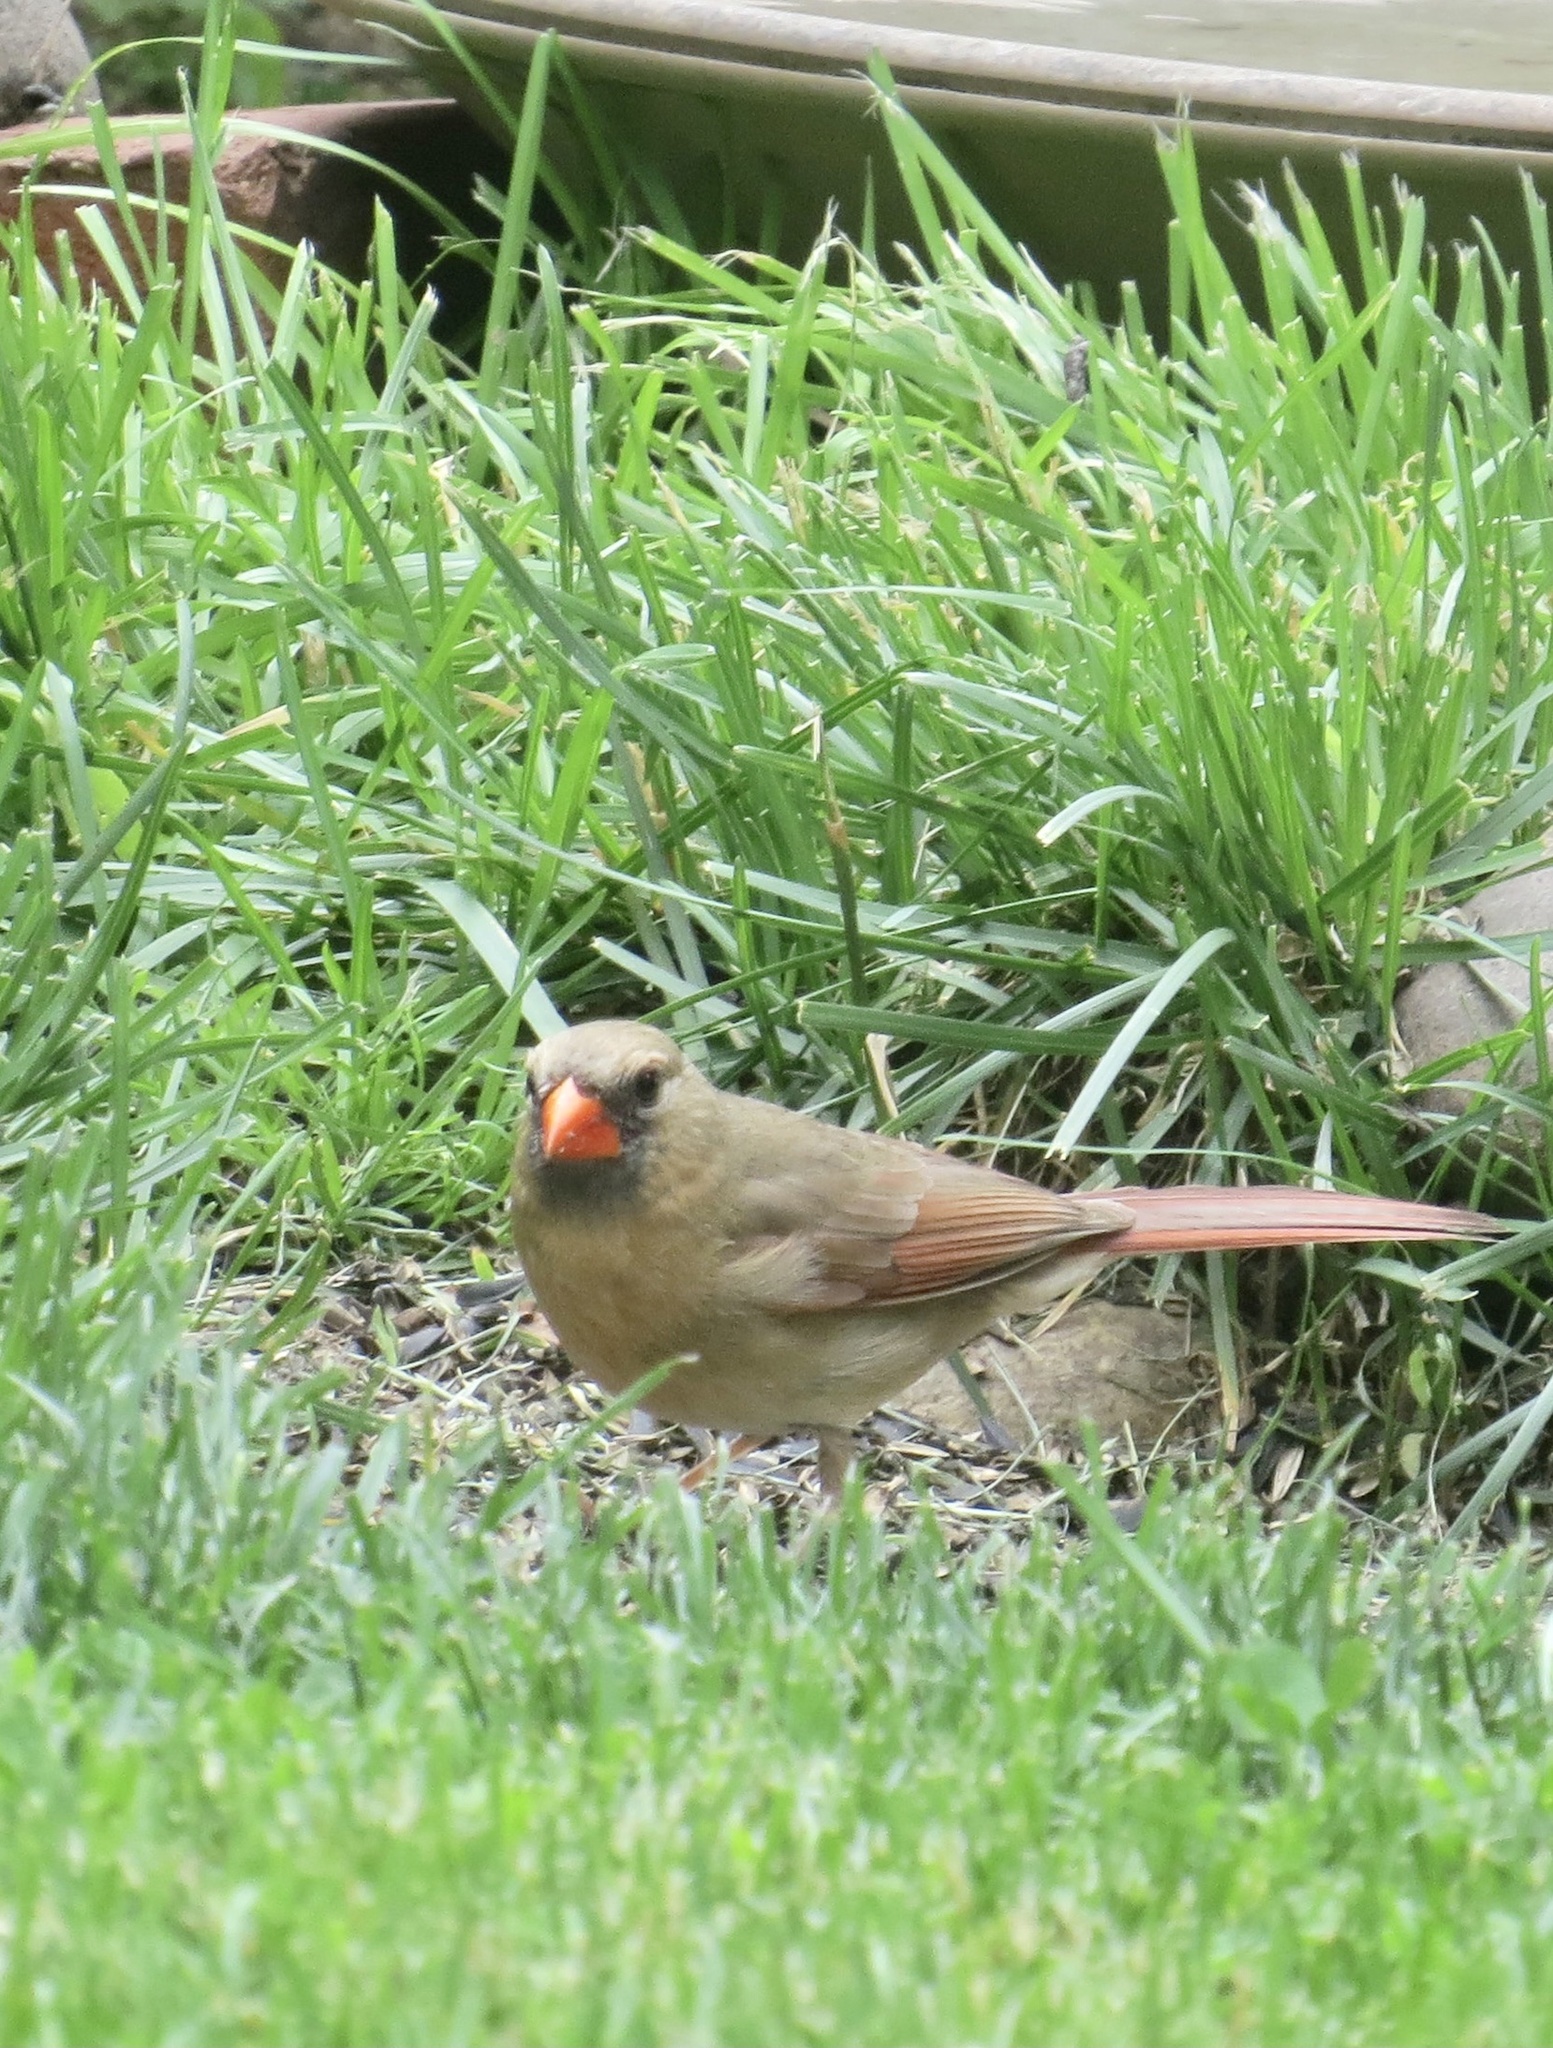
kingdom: Animalia
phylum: Chordata
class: Aves
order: Passeriformes
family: Cardinalidae
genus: Cardinalis
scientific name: Cardinalis cardinalis
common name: Northern cardinal
